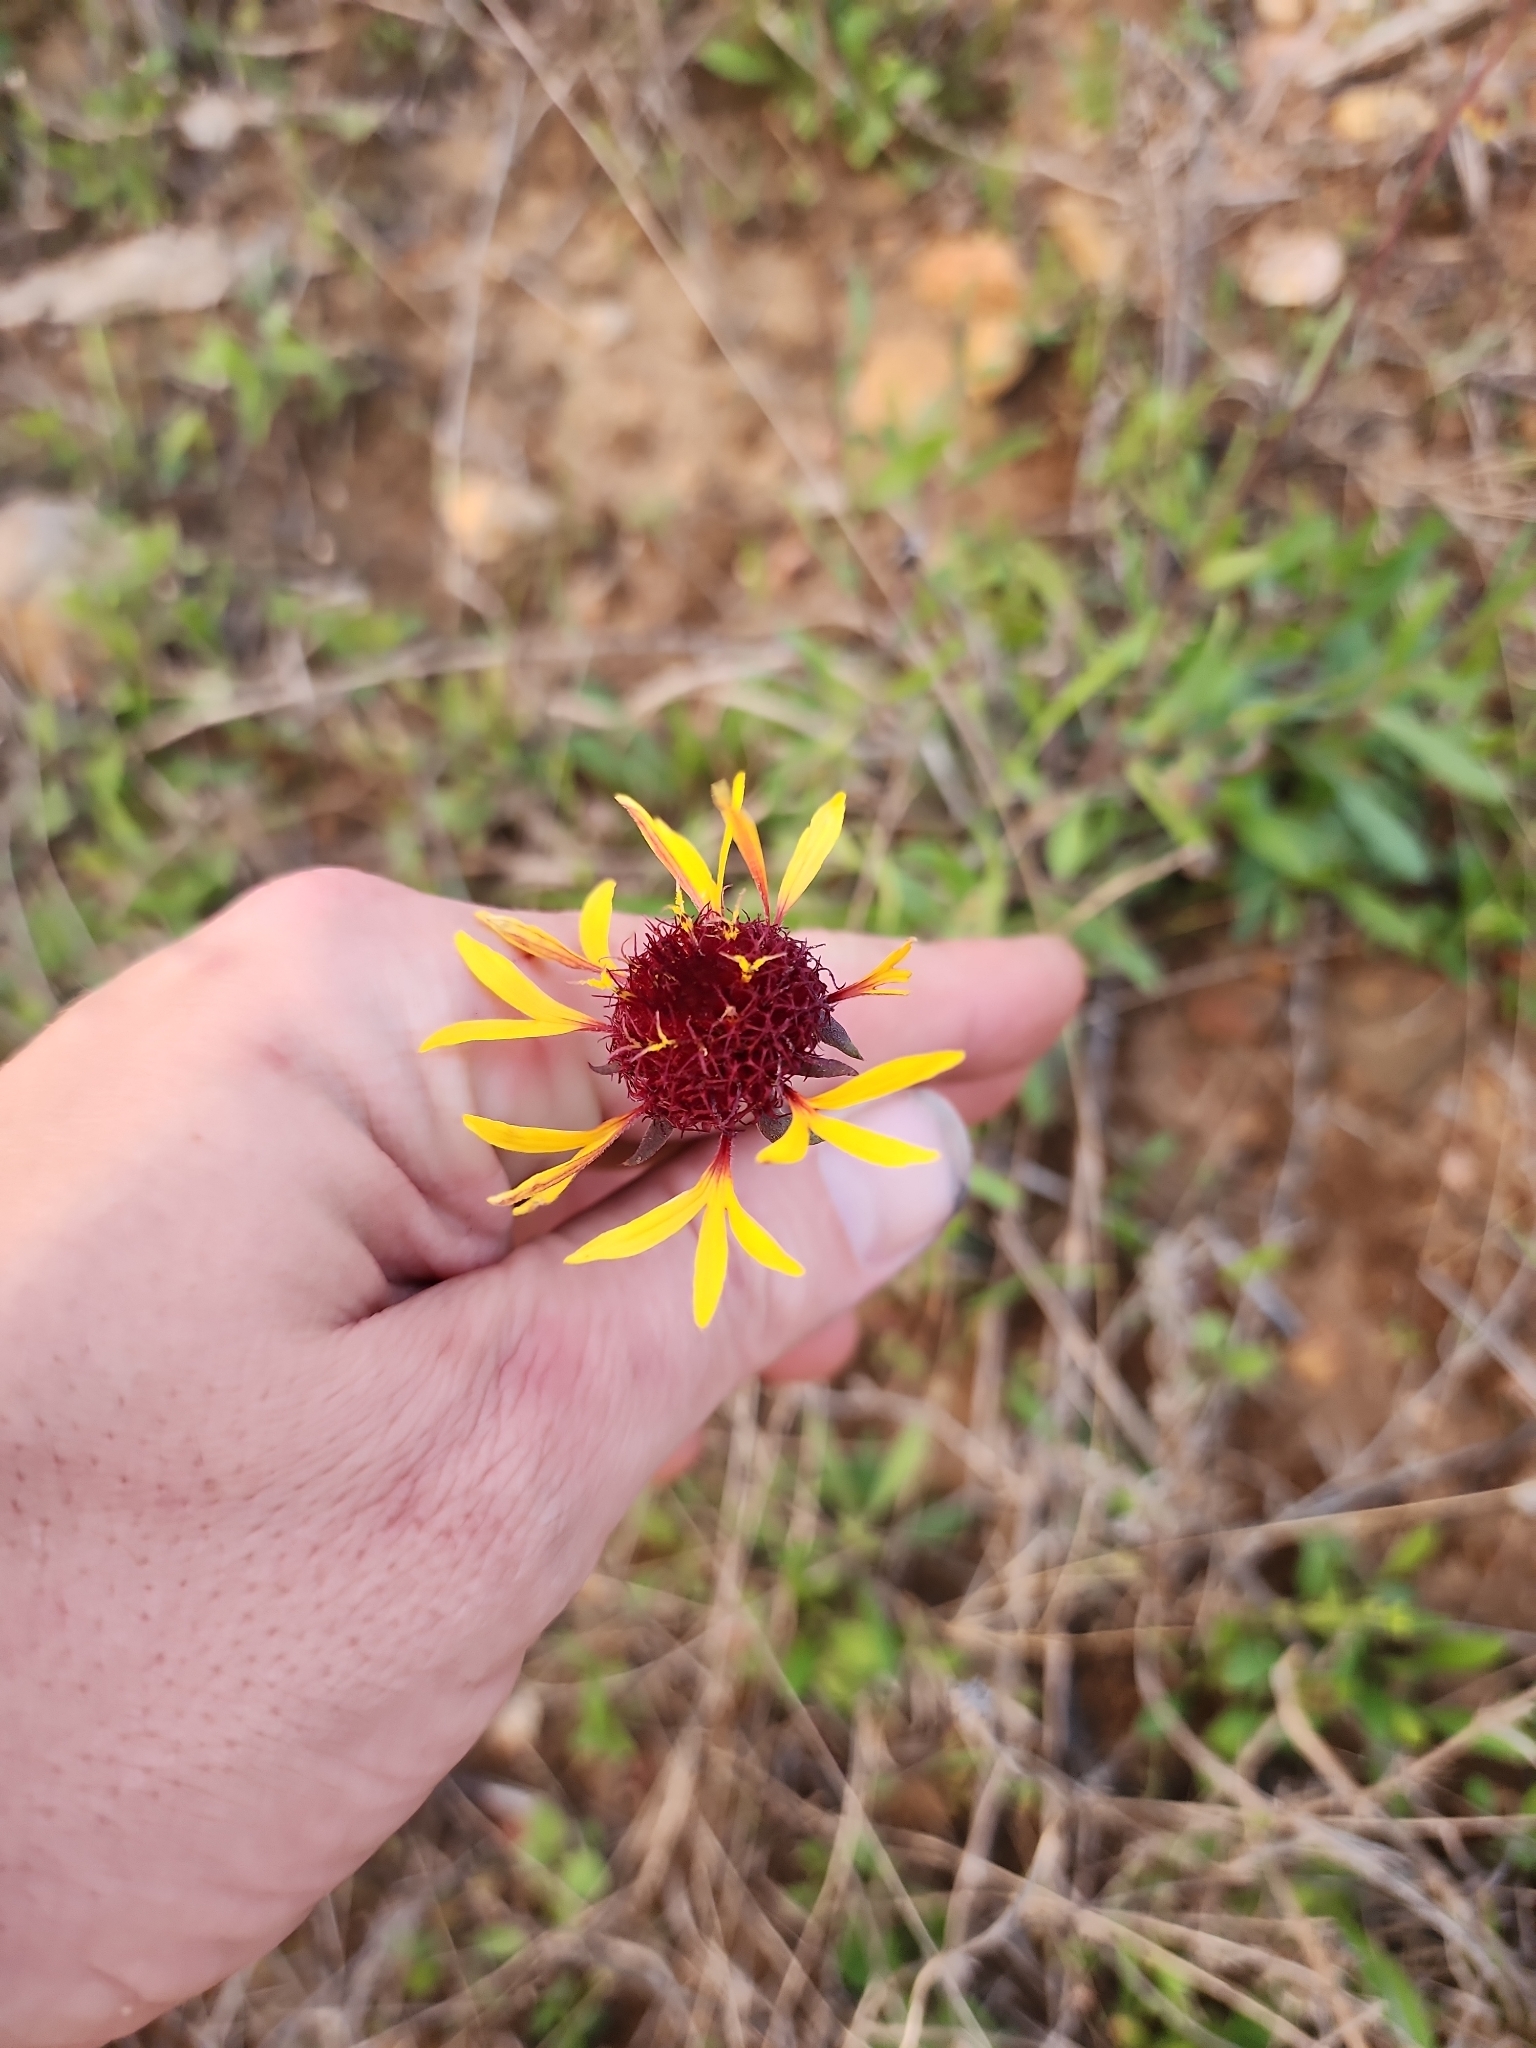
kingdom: Plantae
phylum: Tracheophyta
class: Magnoliopsida
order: Asterales
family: Asteraceae
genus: Gaillardia
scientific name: Gaillardia aestivalis
